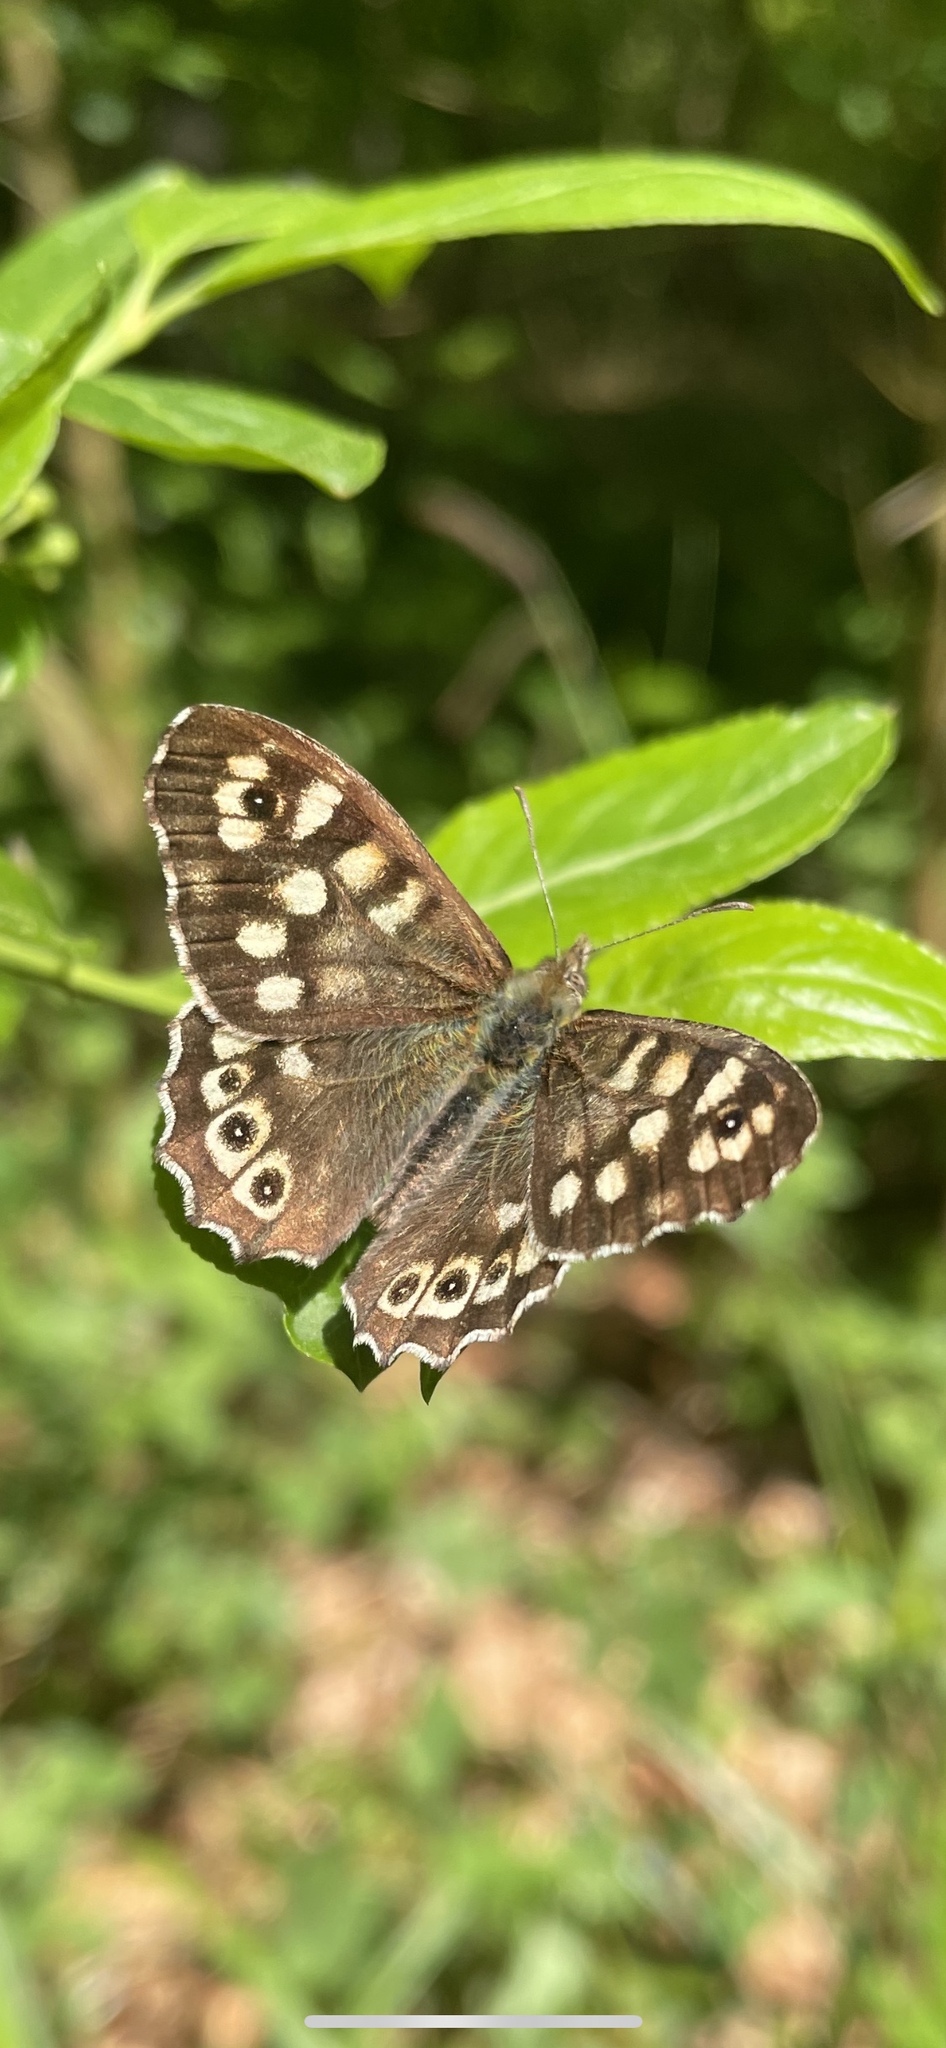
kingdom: Animalia
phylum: Arthropoda
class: Insecta
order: Lepidoptera
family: Nymphalidae
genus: Pararge
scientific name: Pararge aegeria
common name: Speckled wood
